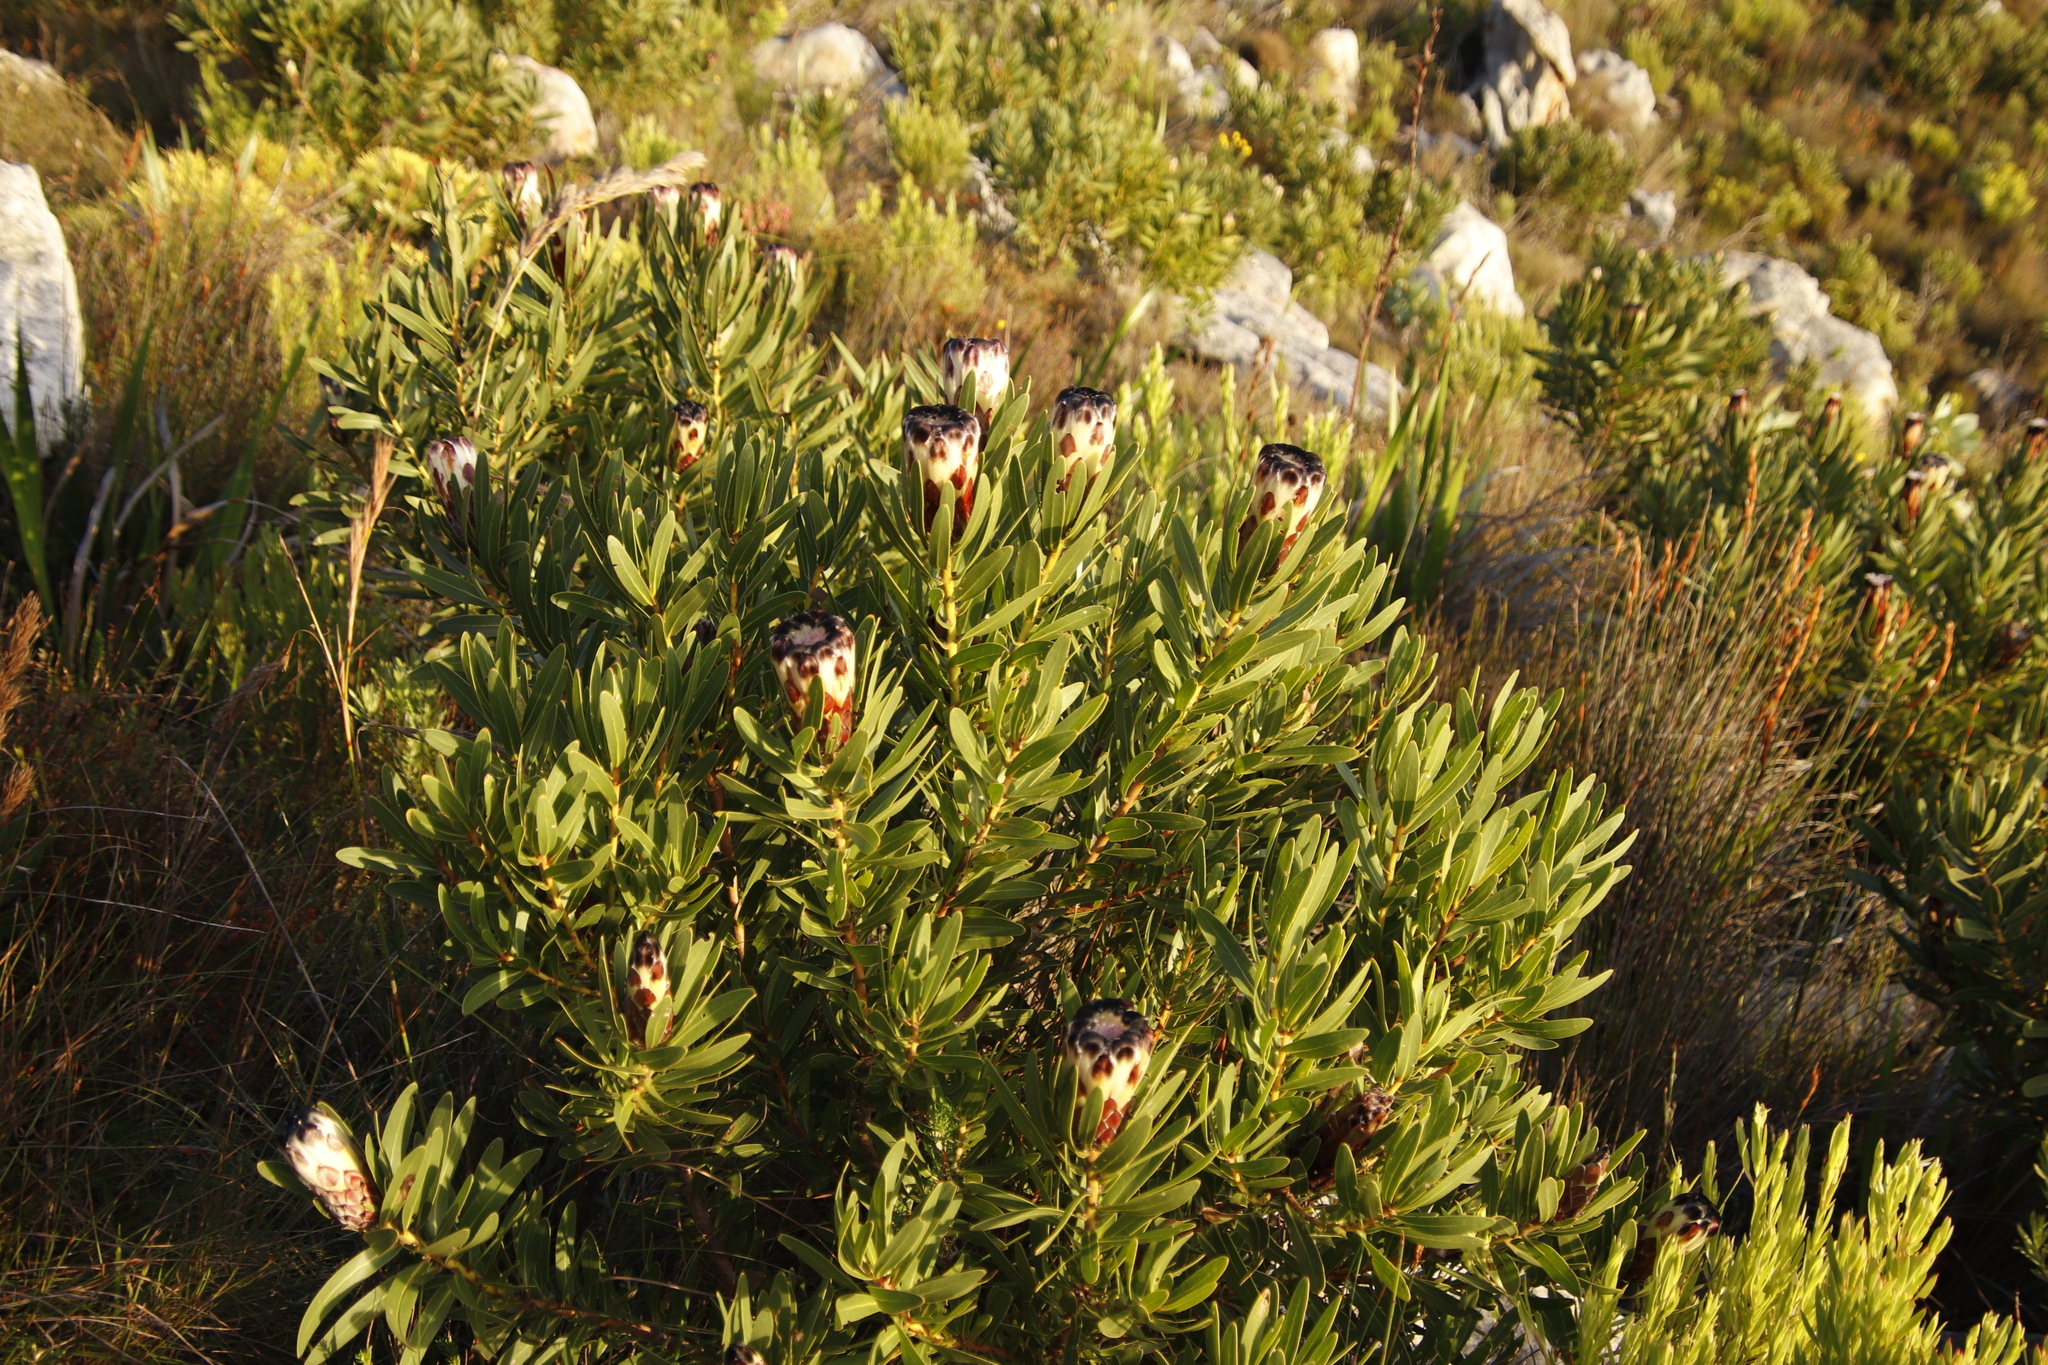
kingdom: Plantae
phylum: Tracheophyta
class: Magnoliopsida
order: Proteales
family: Proteaceae
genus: Protea
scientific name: Protea lepidocarpodendron
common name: Black-bearded protea
